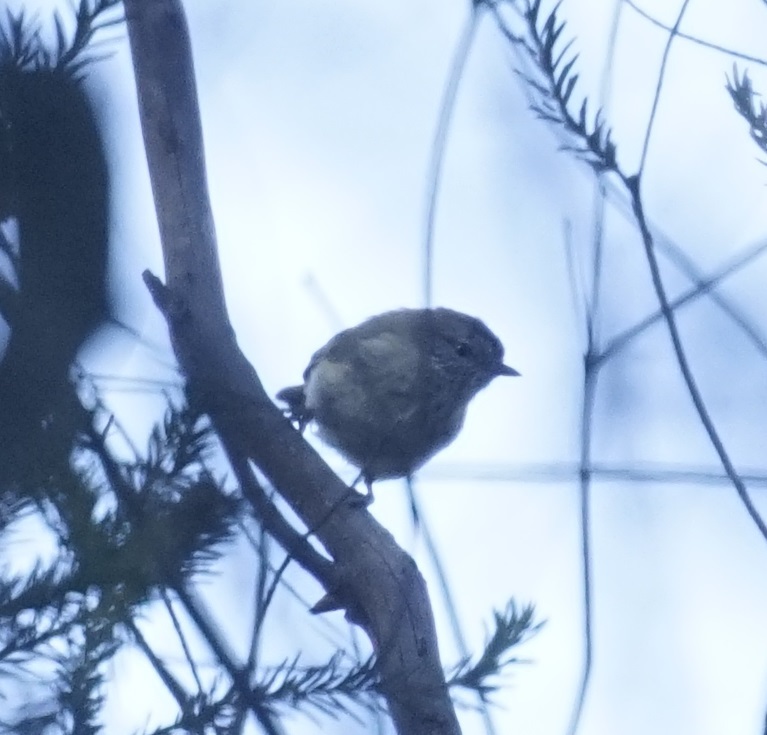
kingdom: Animalia
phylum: Chordata
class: Aves
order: Passeriformes
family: Acanthizidae
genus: Acanthiza
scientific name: Acanthiza lineata
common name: Striated thornbill
